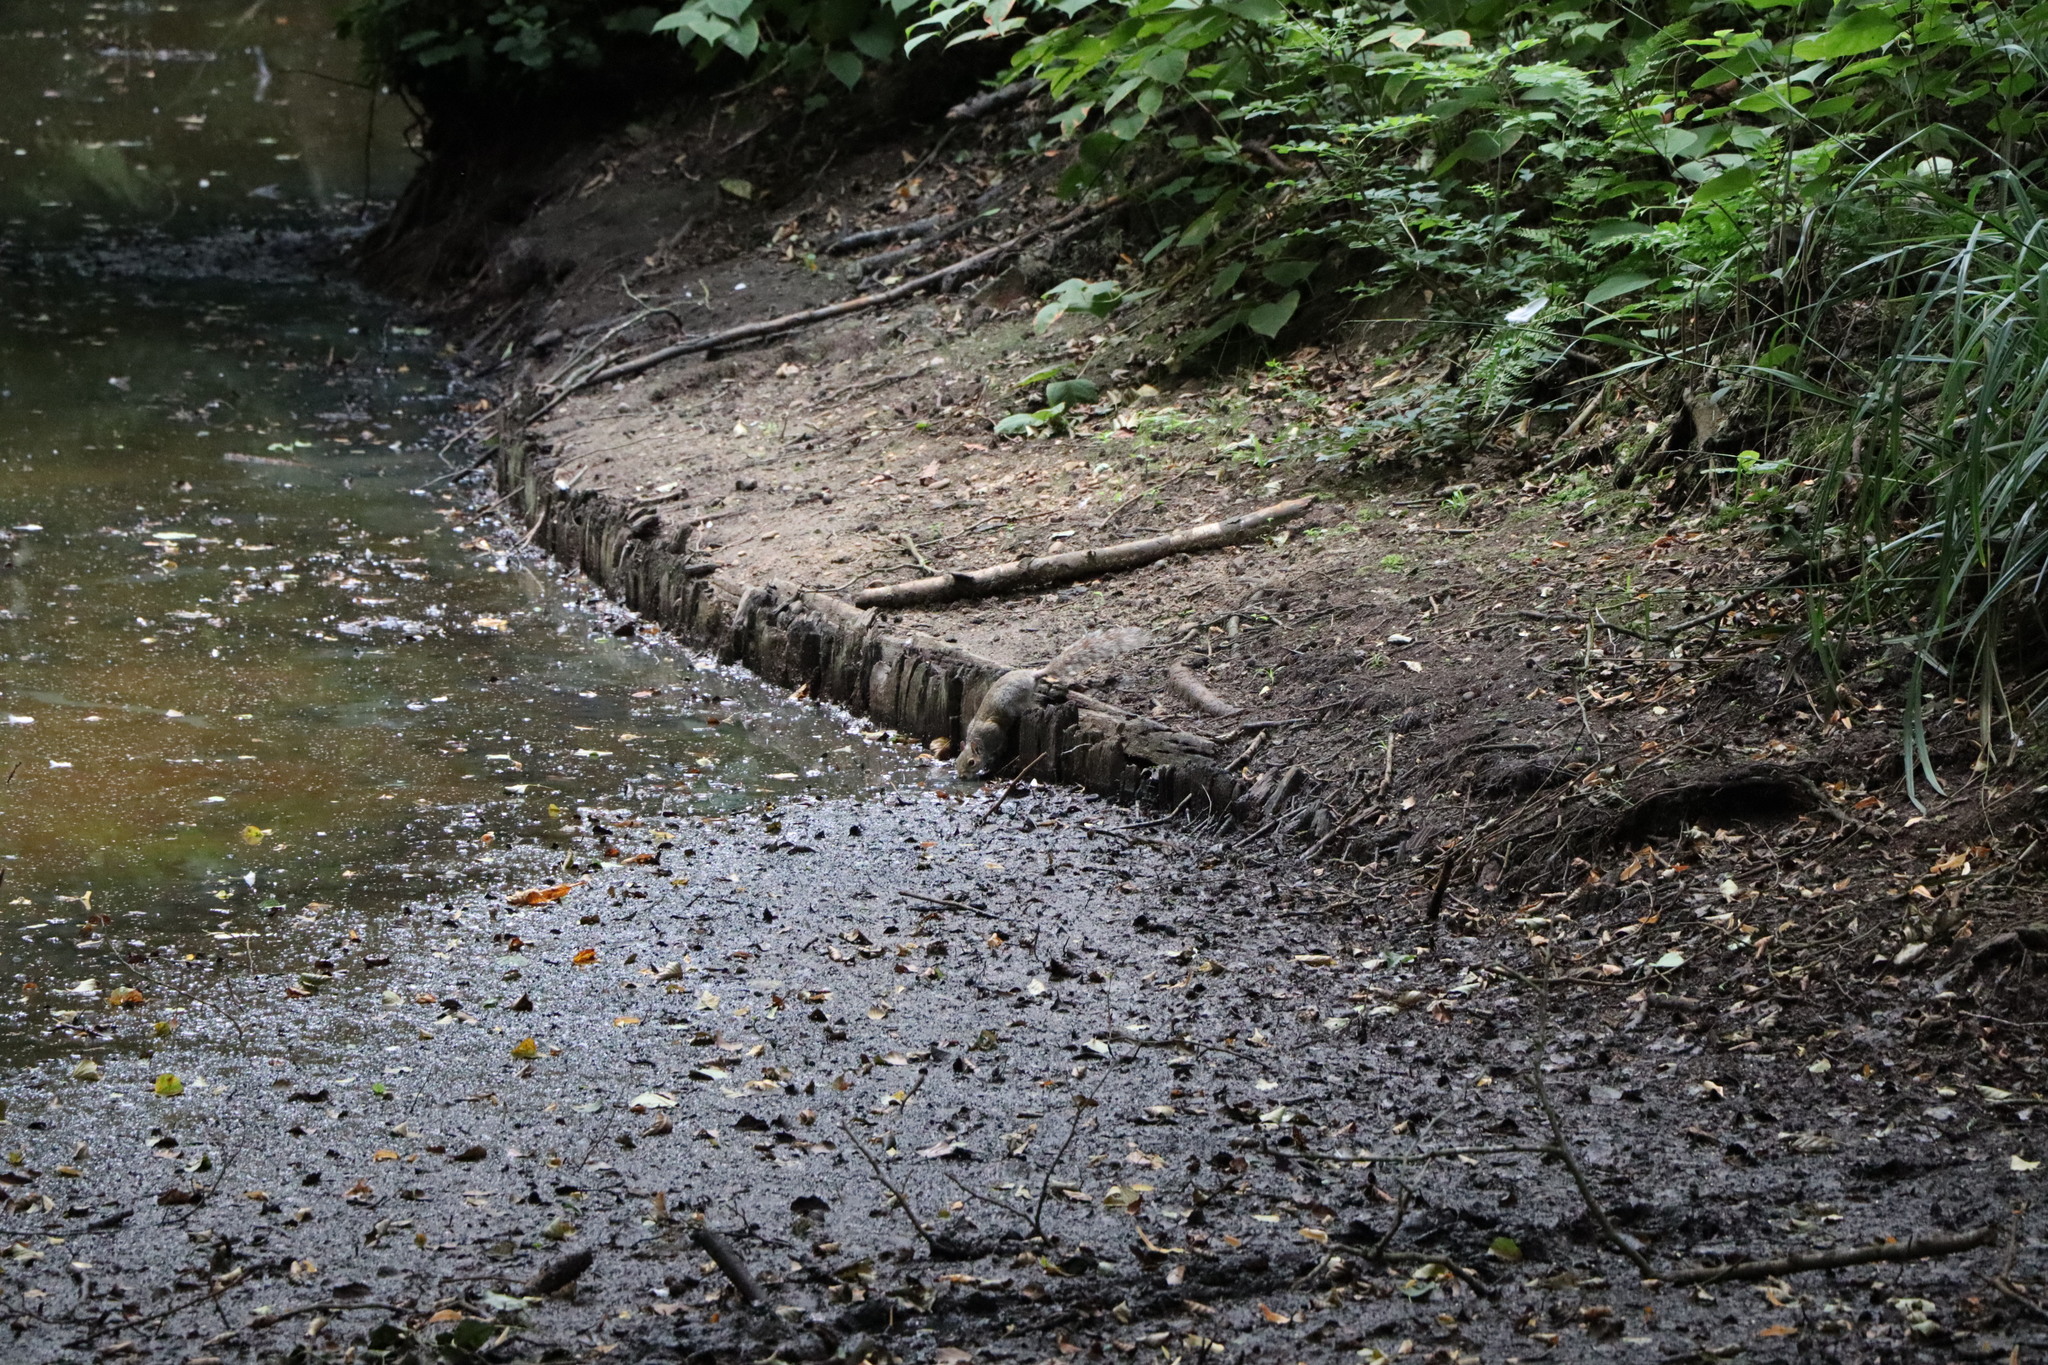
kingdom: Animalia
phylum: Chordata
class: Mammalia
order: Rodentia
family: Sciuridae
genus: Sciurus
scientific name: Sciurus carolinensis
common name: Eastern gray squirrel
